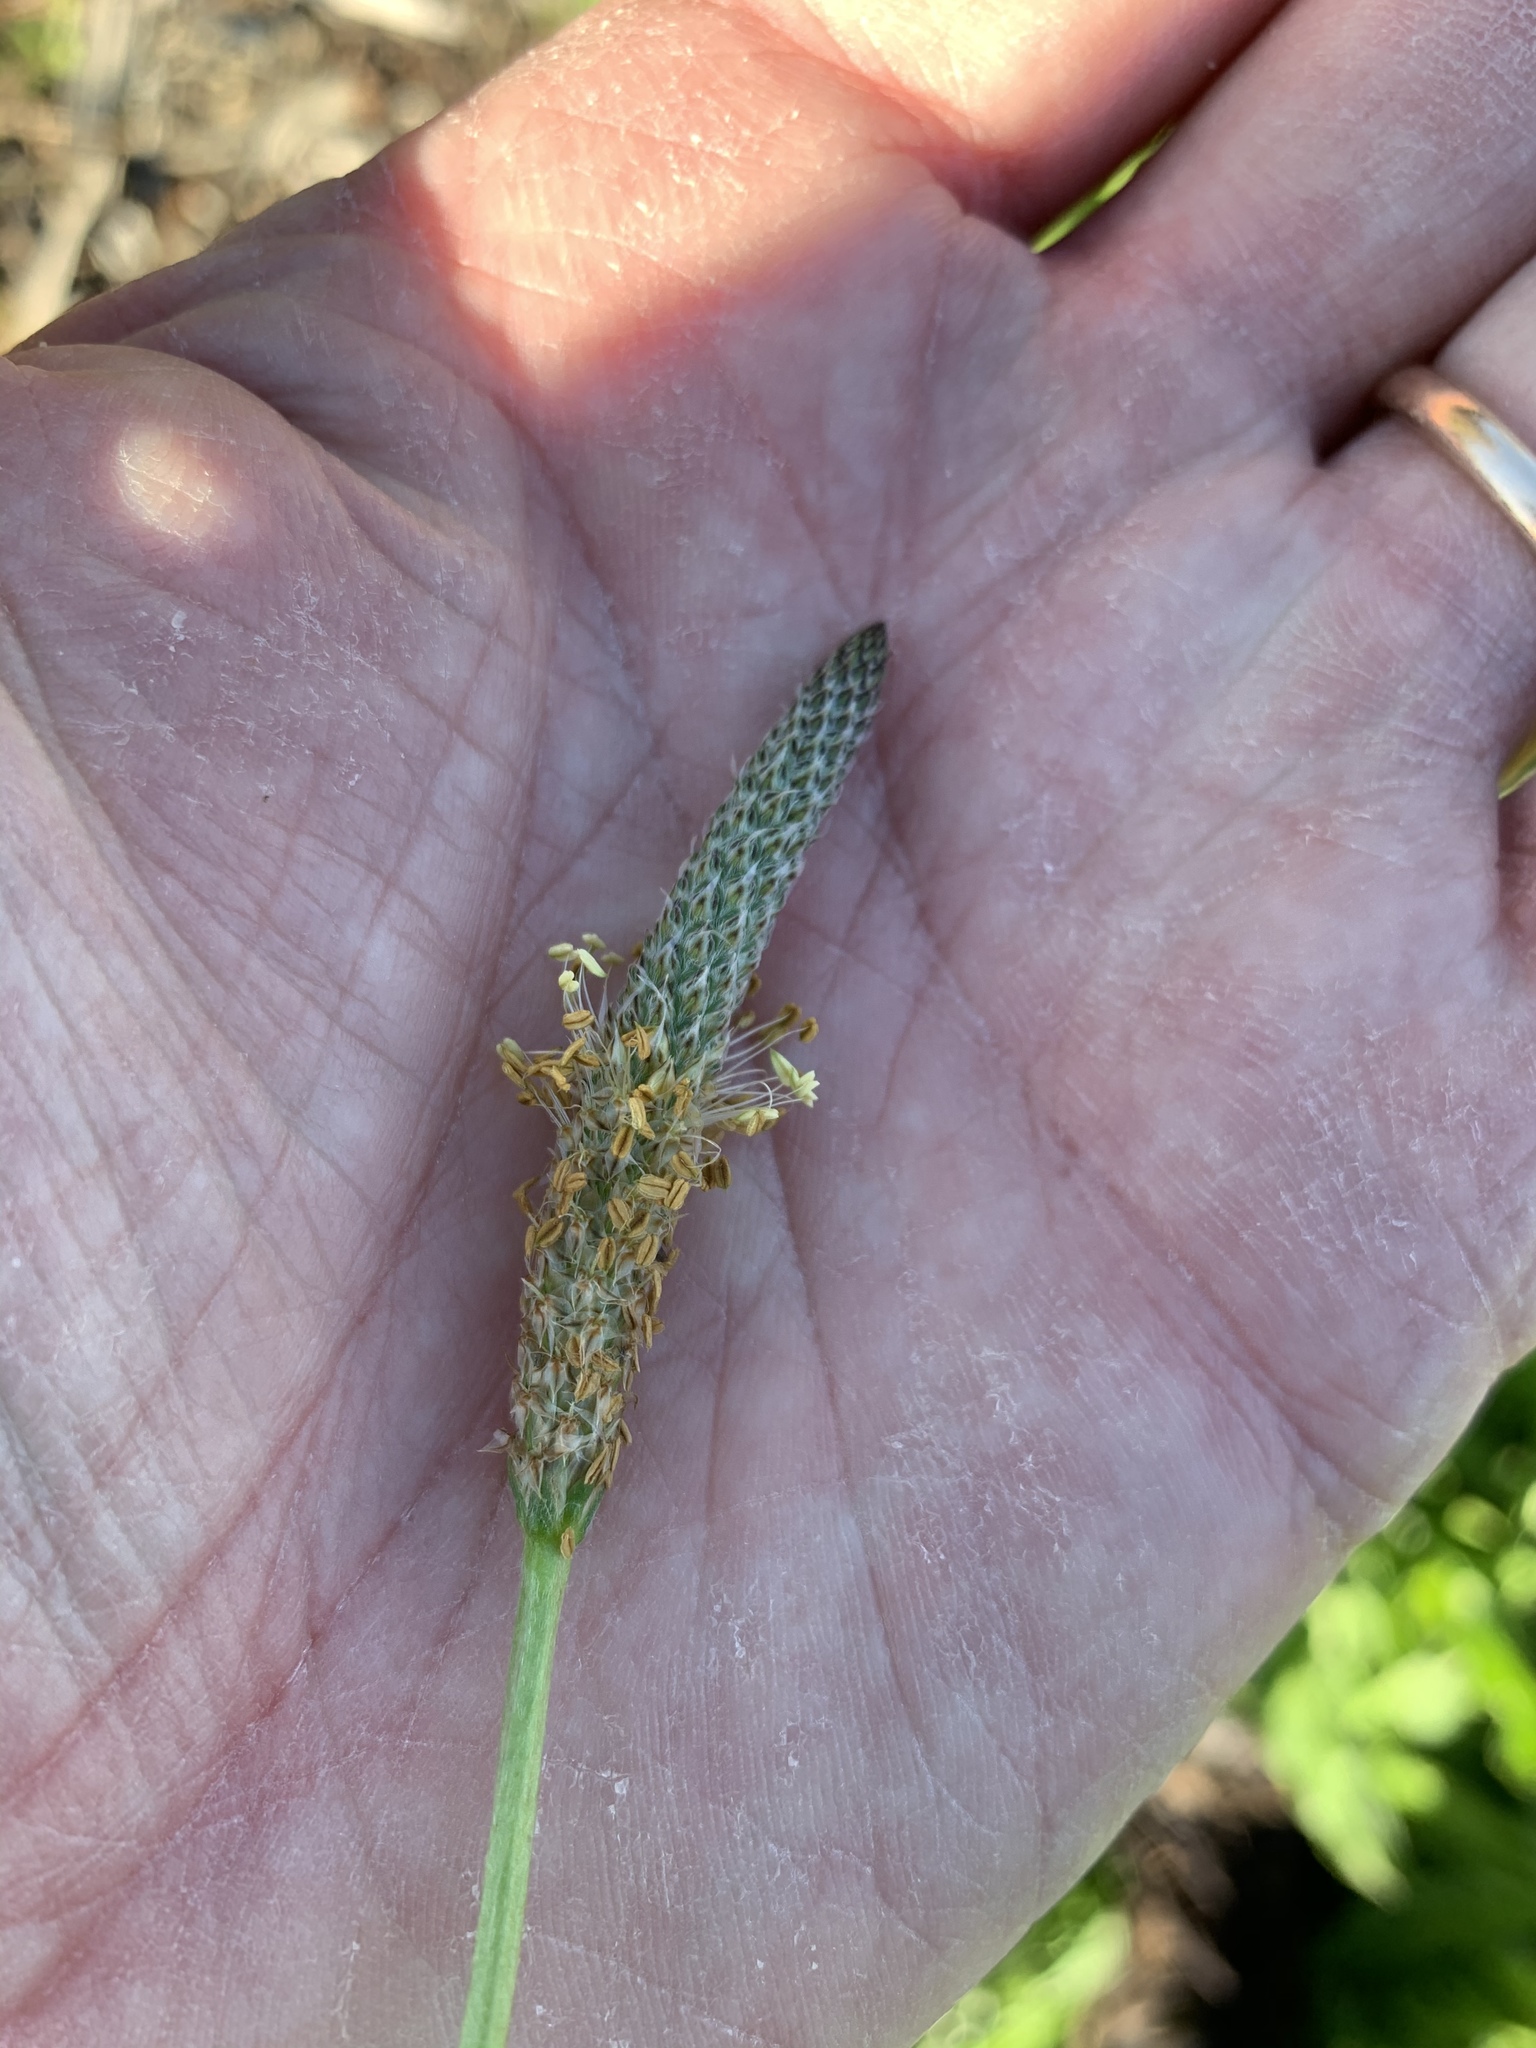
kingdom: Plantae
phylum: Tracheophyta
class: Magnoliopsida
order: Lamiales
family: Plantaginaceae
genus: Plantago
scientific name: Plantago lanceolata
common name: Ribwort plantain
